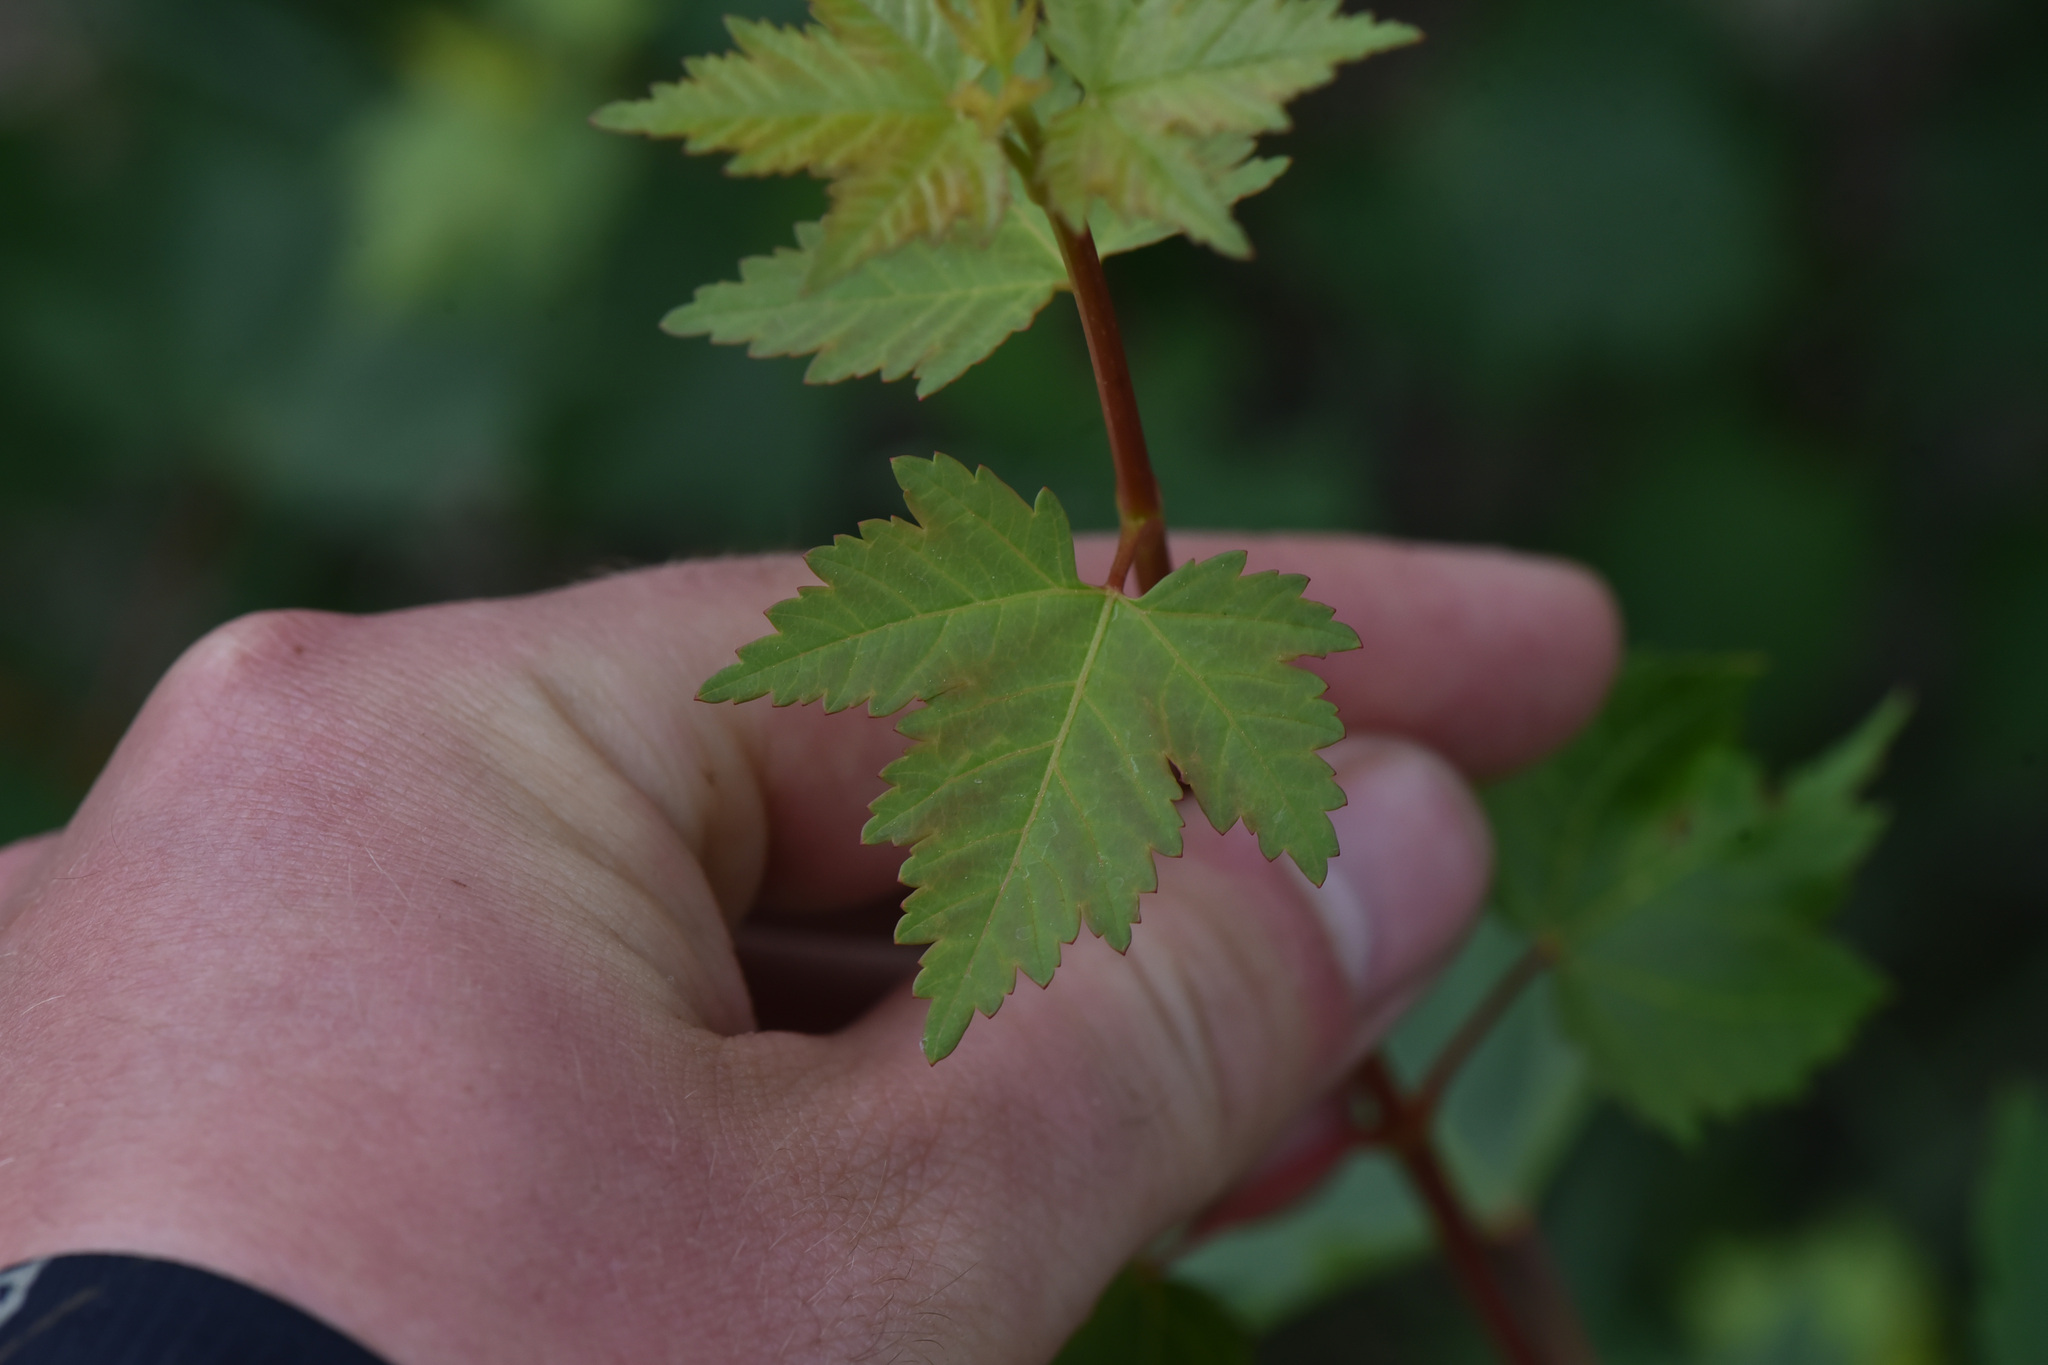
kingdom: Plantae
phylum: Tracheophyta
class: Magnoliopsida
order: Sapindales
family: Sapindaceae
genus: Acer
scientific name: Acer glabrum
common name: Rocky mountain maple
